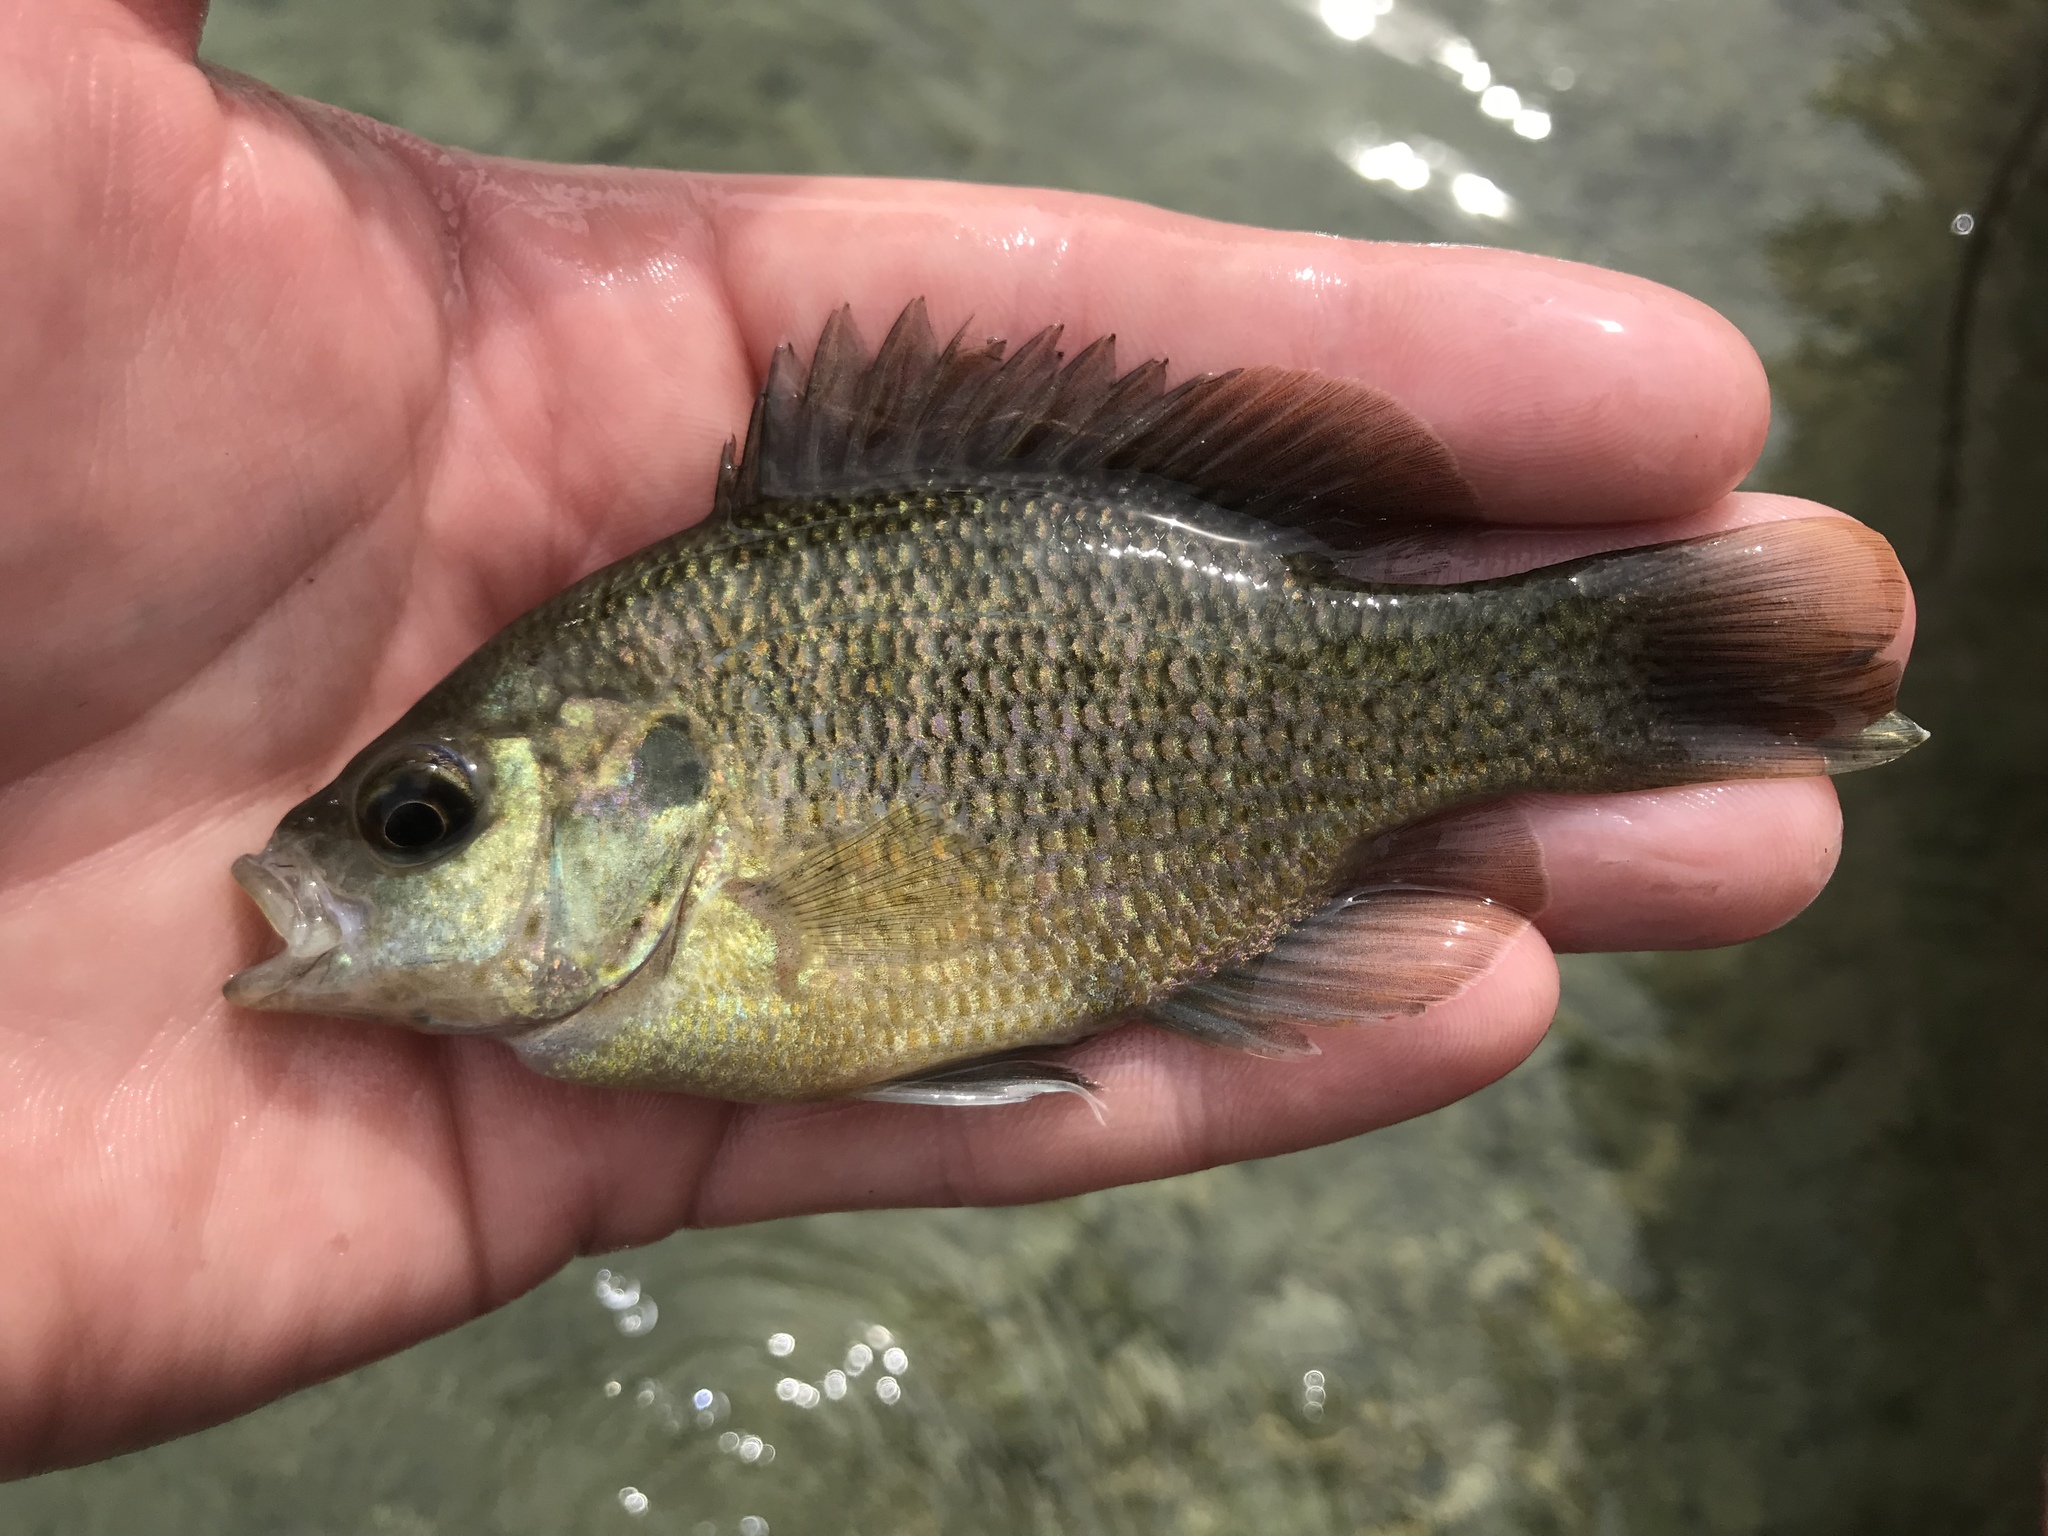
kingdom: Animalia
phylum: Chordata
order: Perciformes
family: Centrarchidae
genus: Lepomis
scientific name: Lepomis miniatus
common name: Redspotted sunfish
